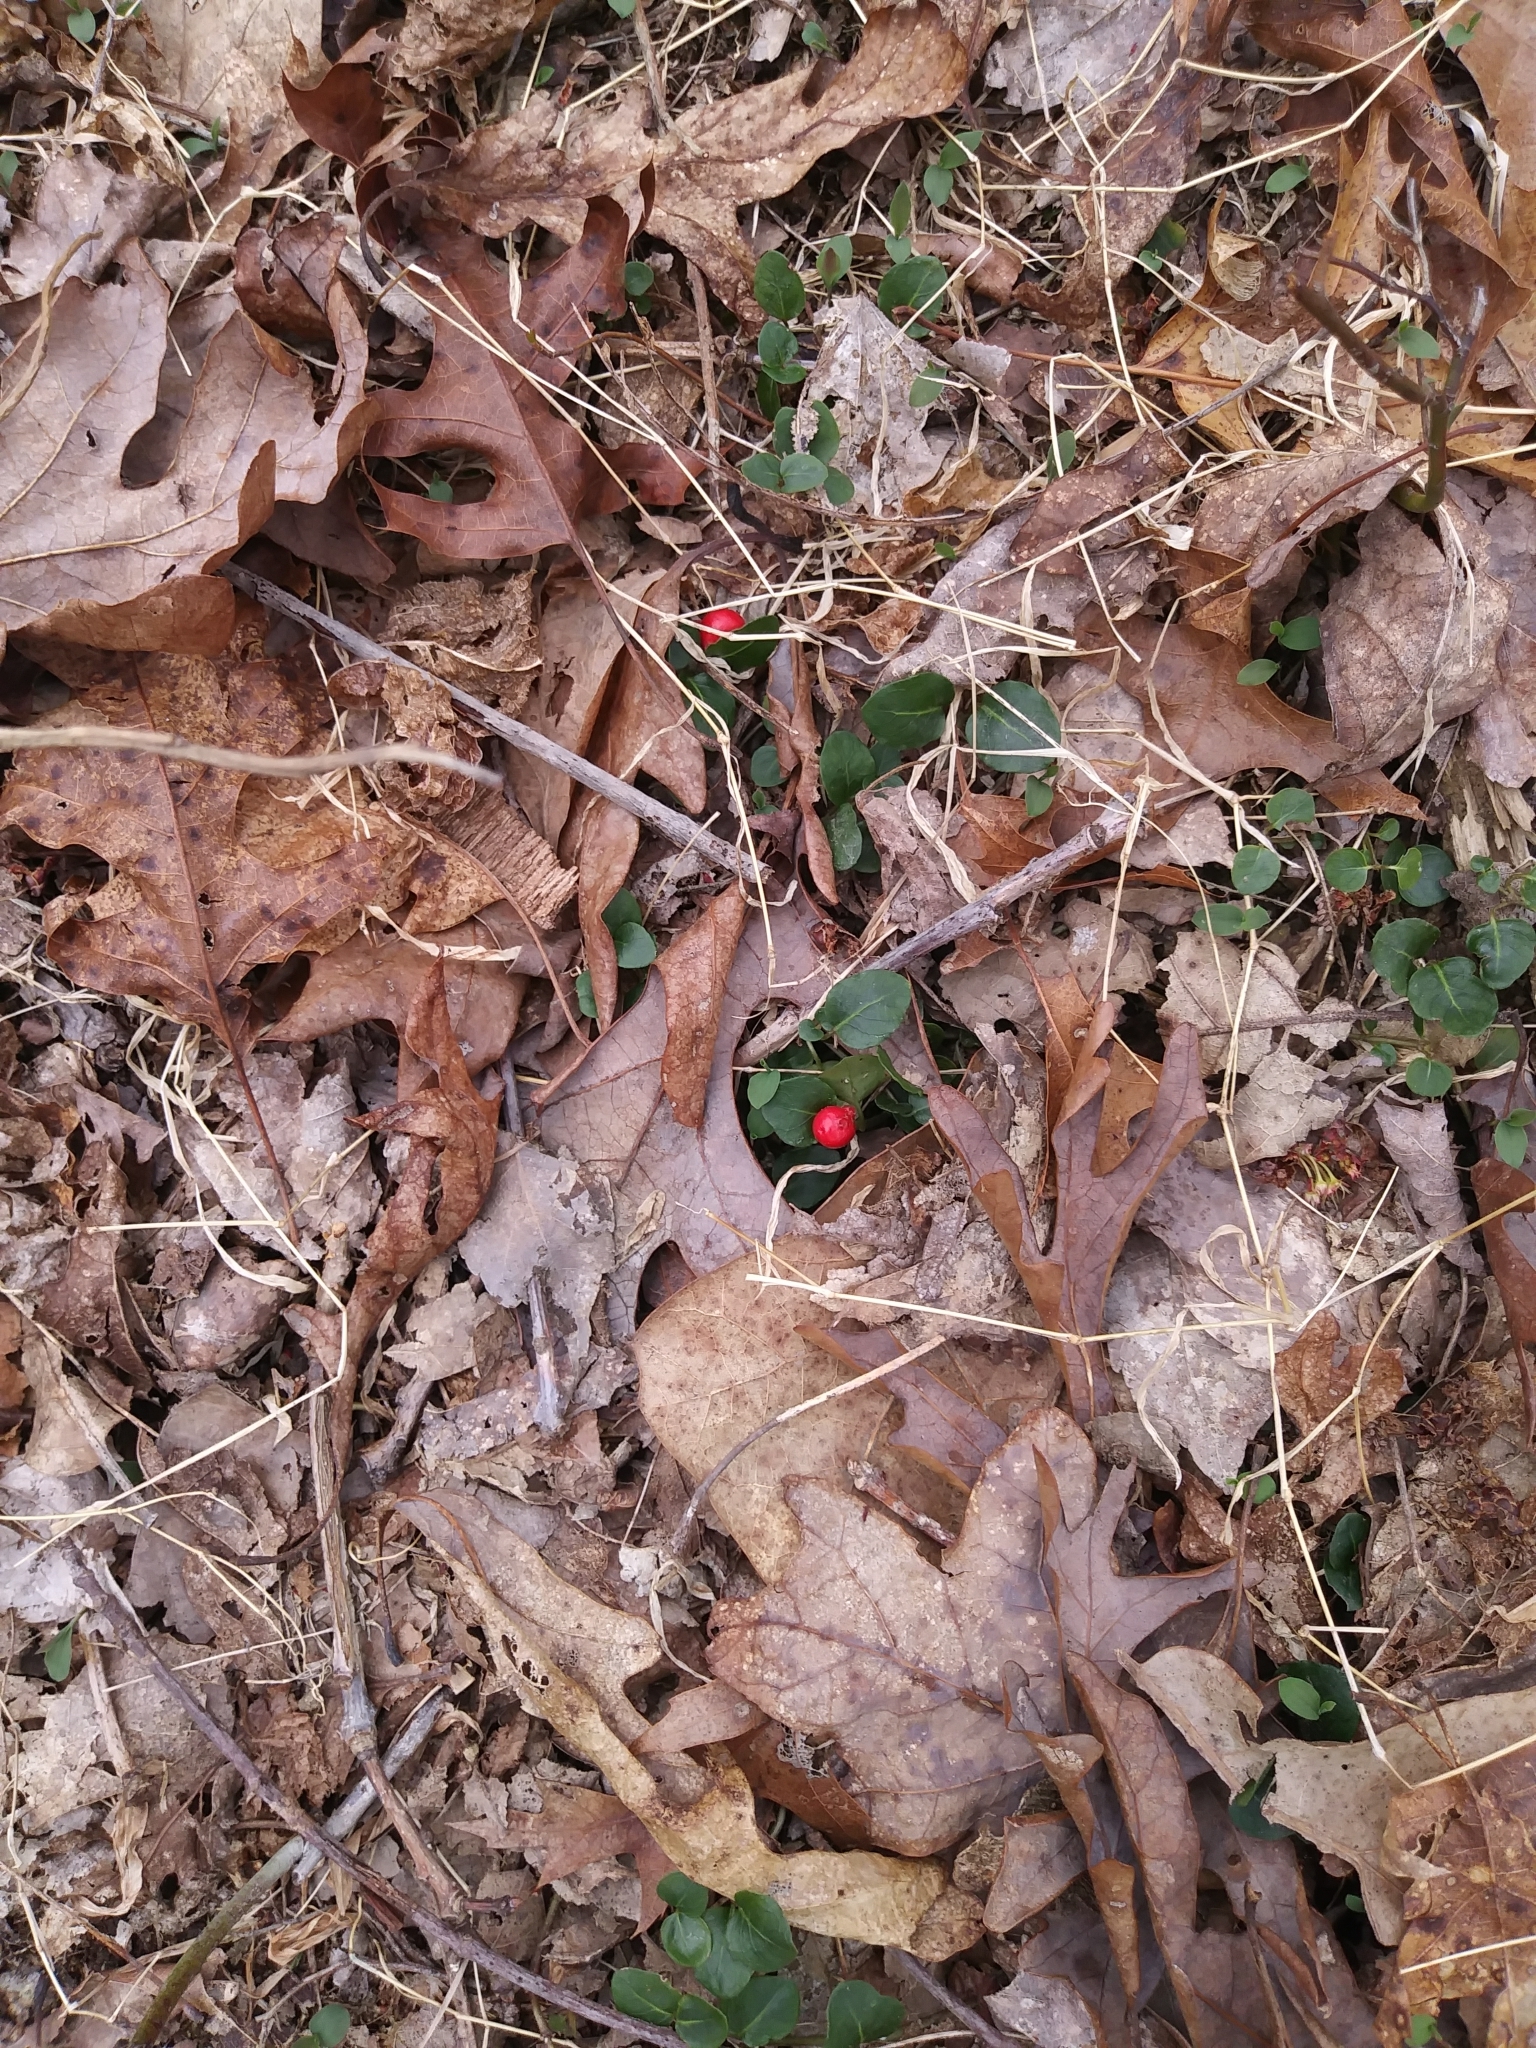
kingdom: Plantae
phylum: Tracheophyta
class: Magnoliopsida
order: Gentianales
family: Rubiaceae
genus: Mitchella
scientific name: Mitchella repens
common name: Partridge-berry
